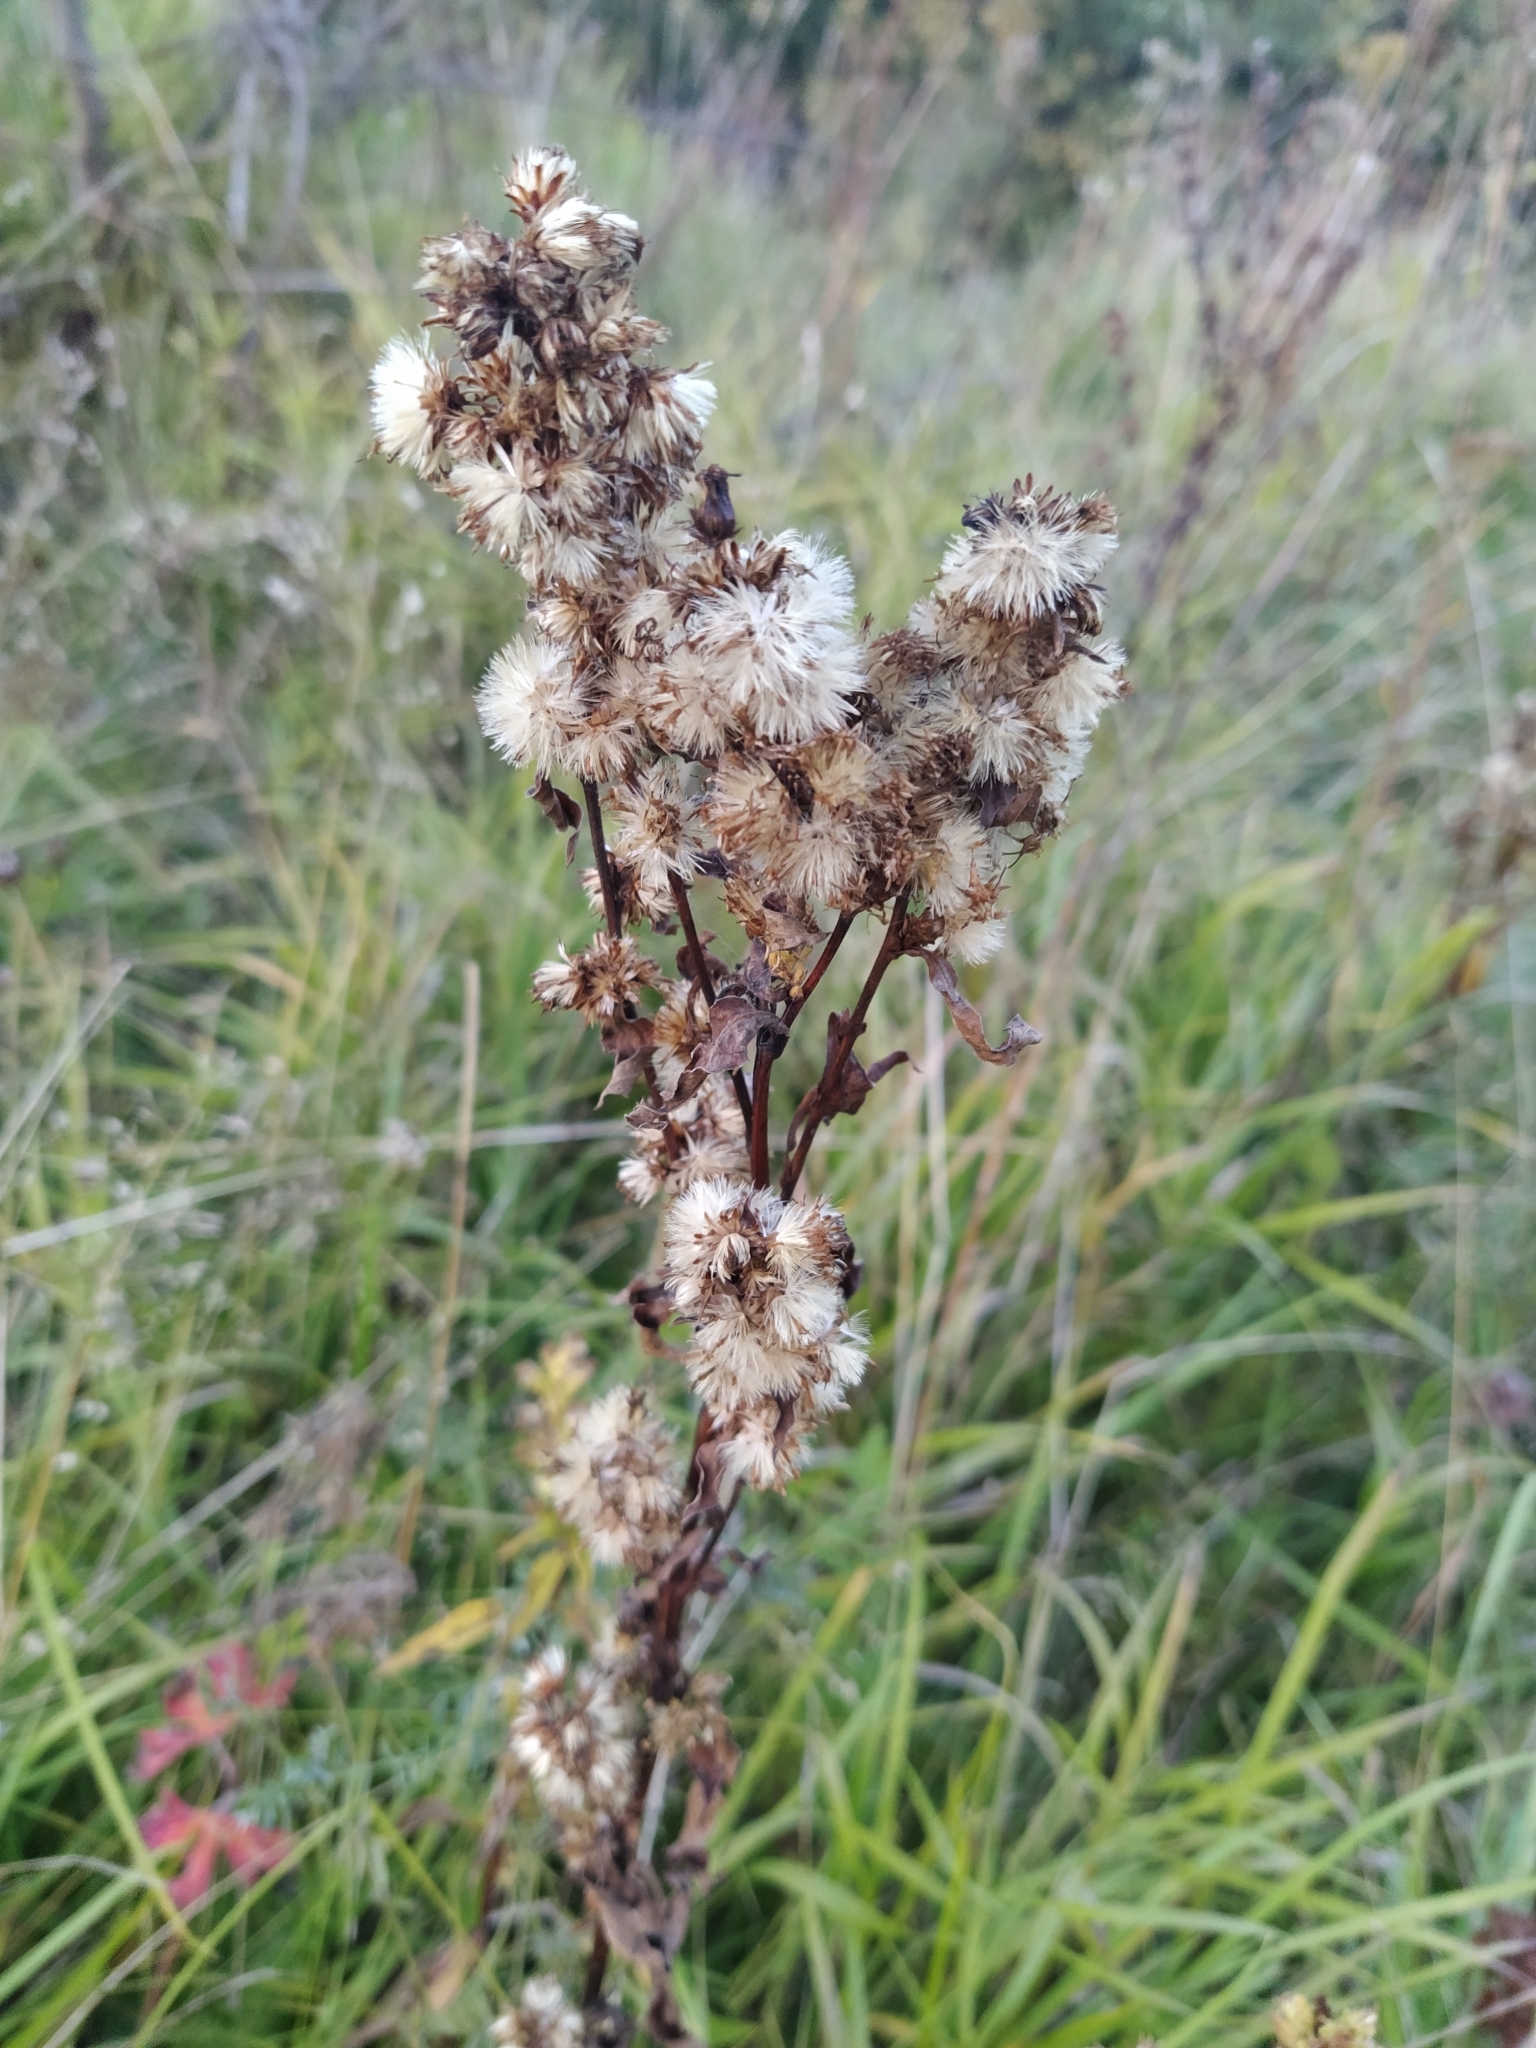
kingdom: Plantae
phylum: Tracheophyta
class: Magnoliopsida
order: Asterales
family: Asteraceae
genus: Solidago
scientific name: Solidago virgaurea
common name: Goldenrod
